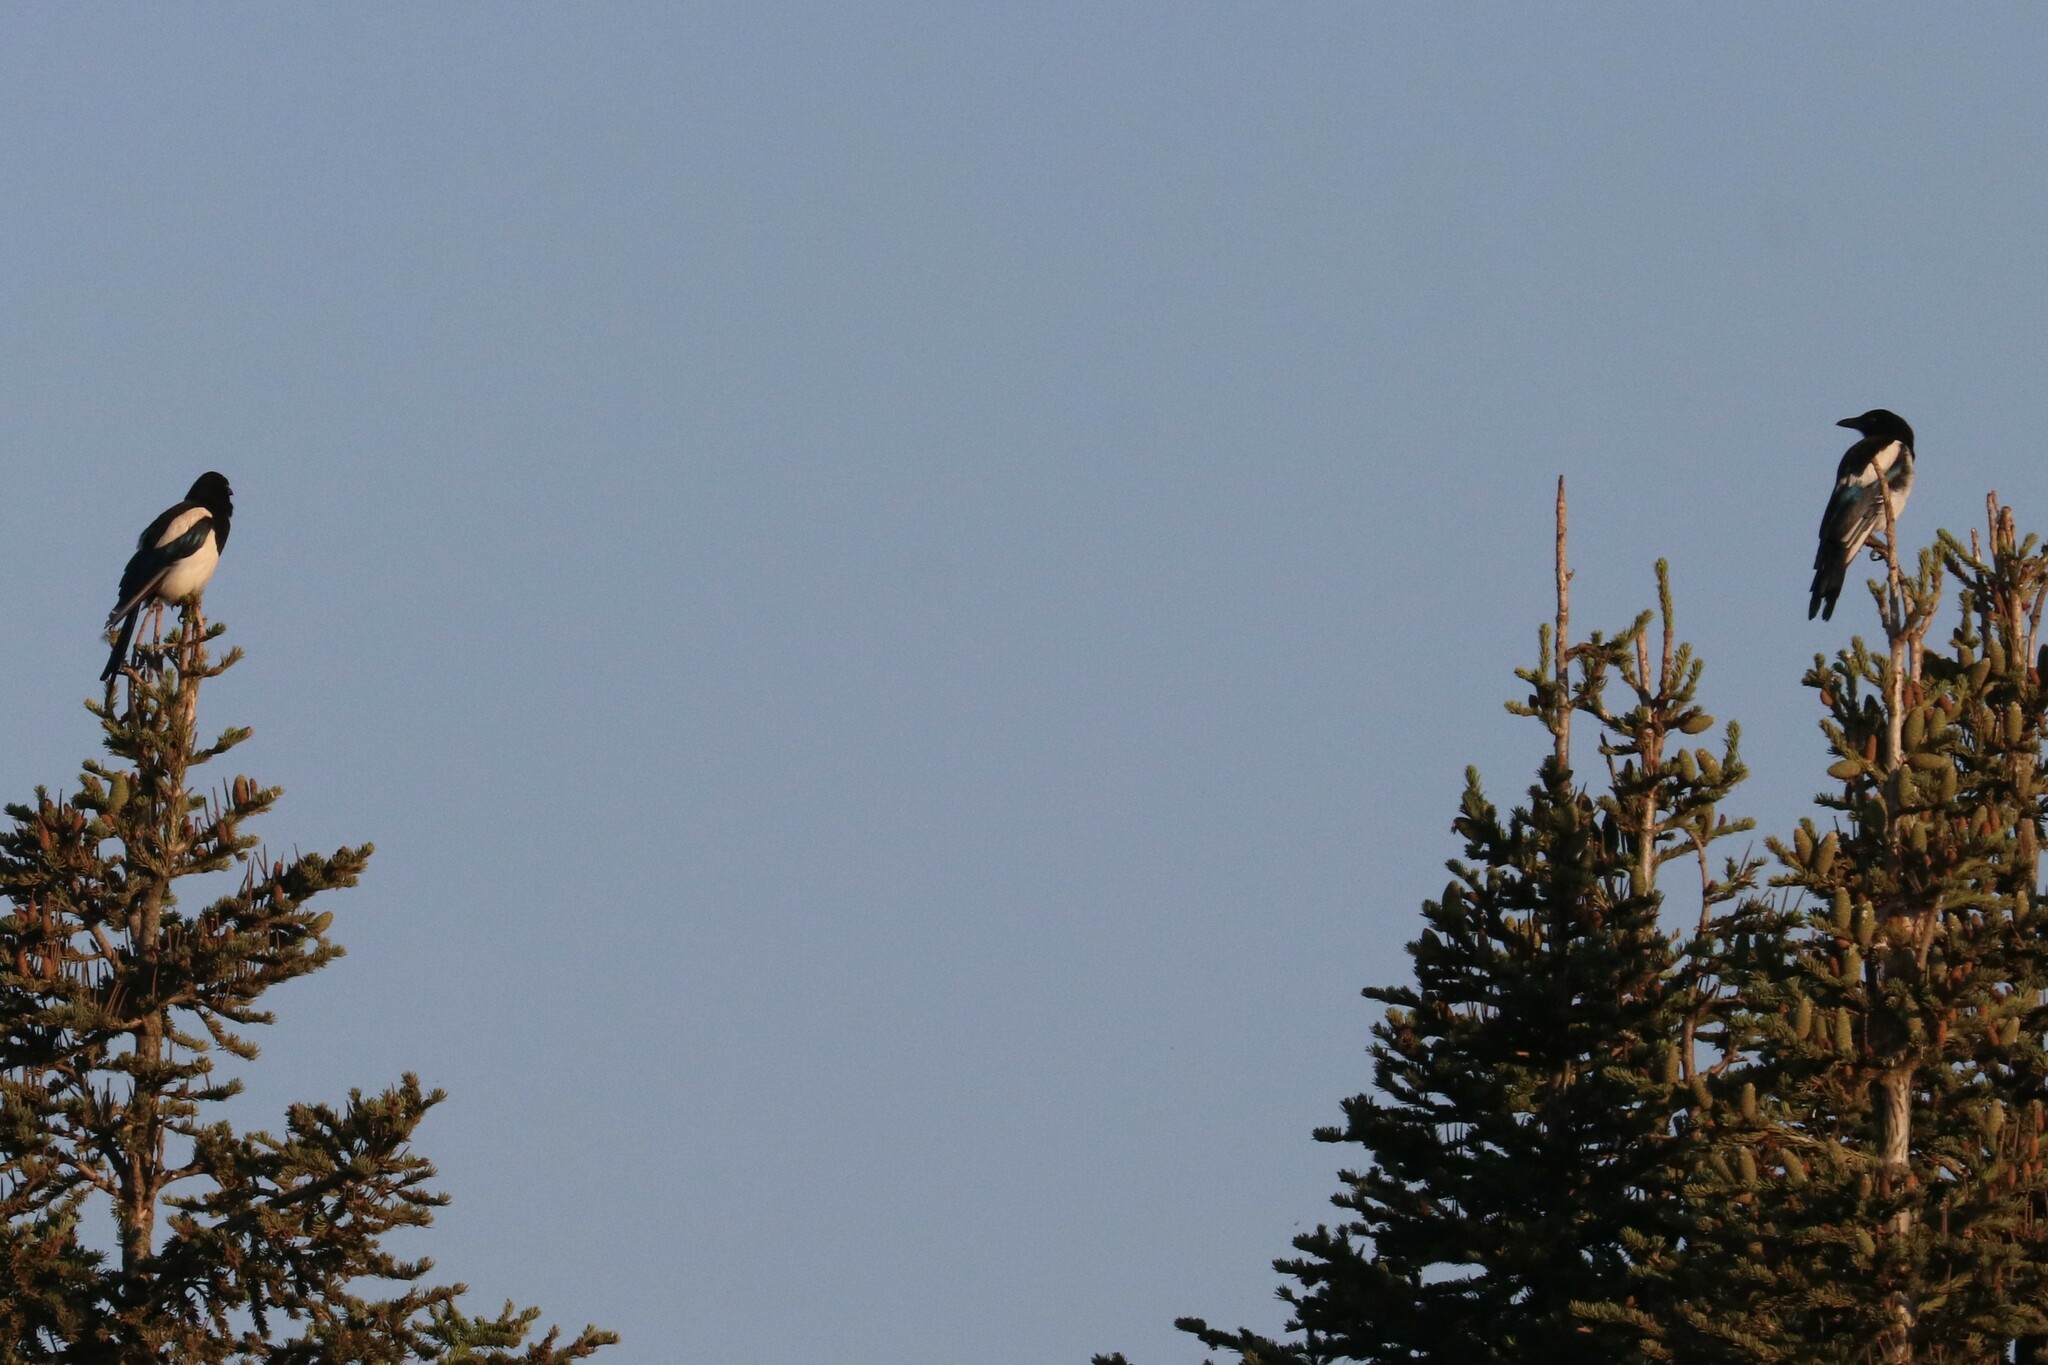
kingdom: Animalia
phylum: Chordata
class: Aves
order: Passeriformes
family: Corvidae
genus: Pica
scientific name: Pica pica
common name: Eurasian magpie
